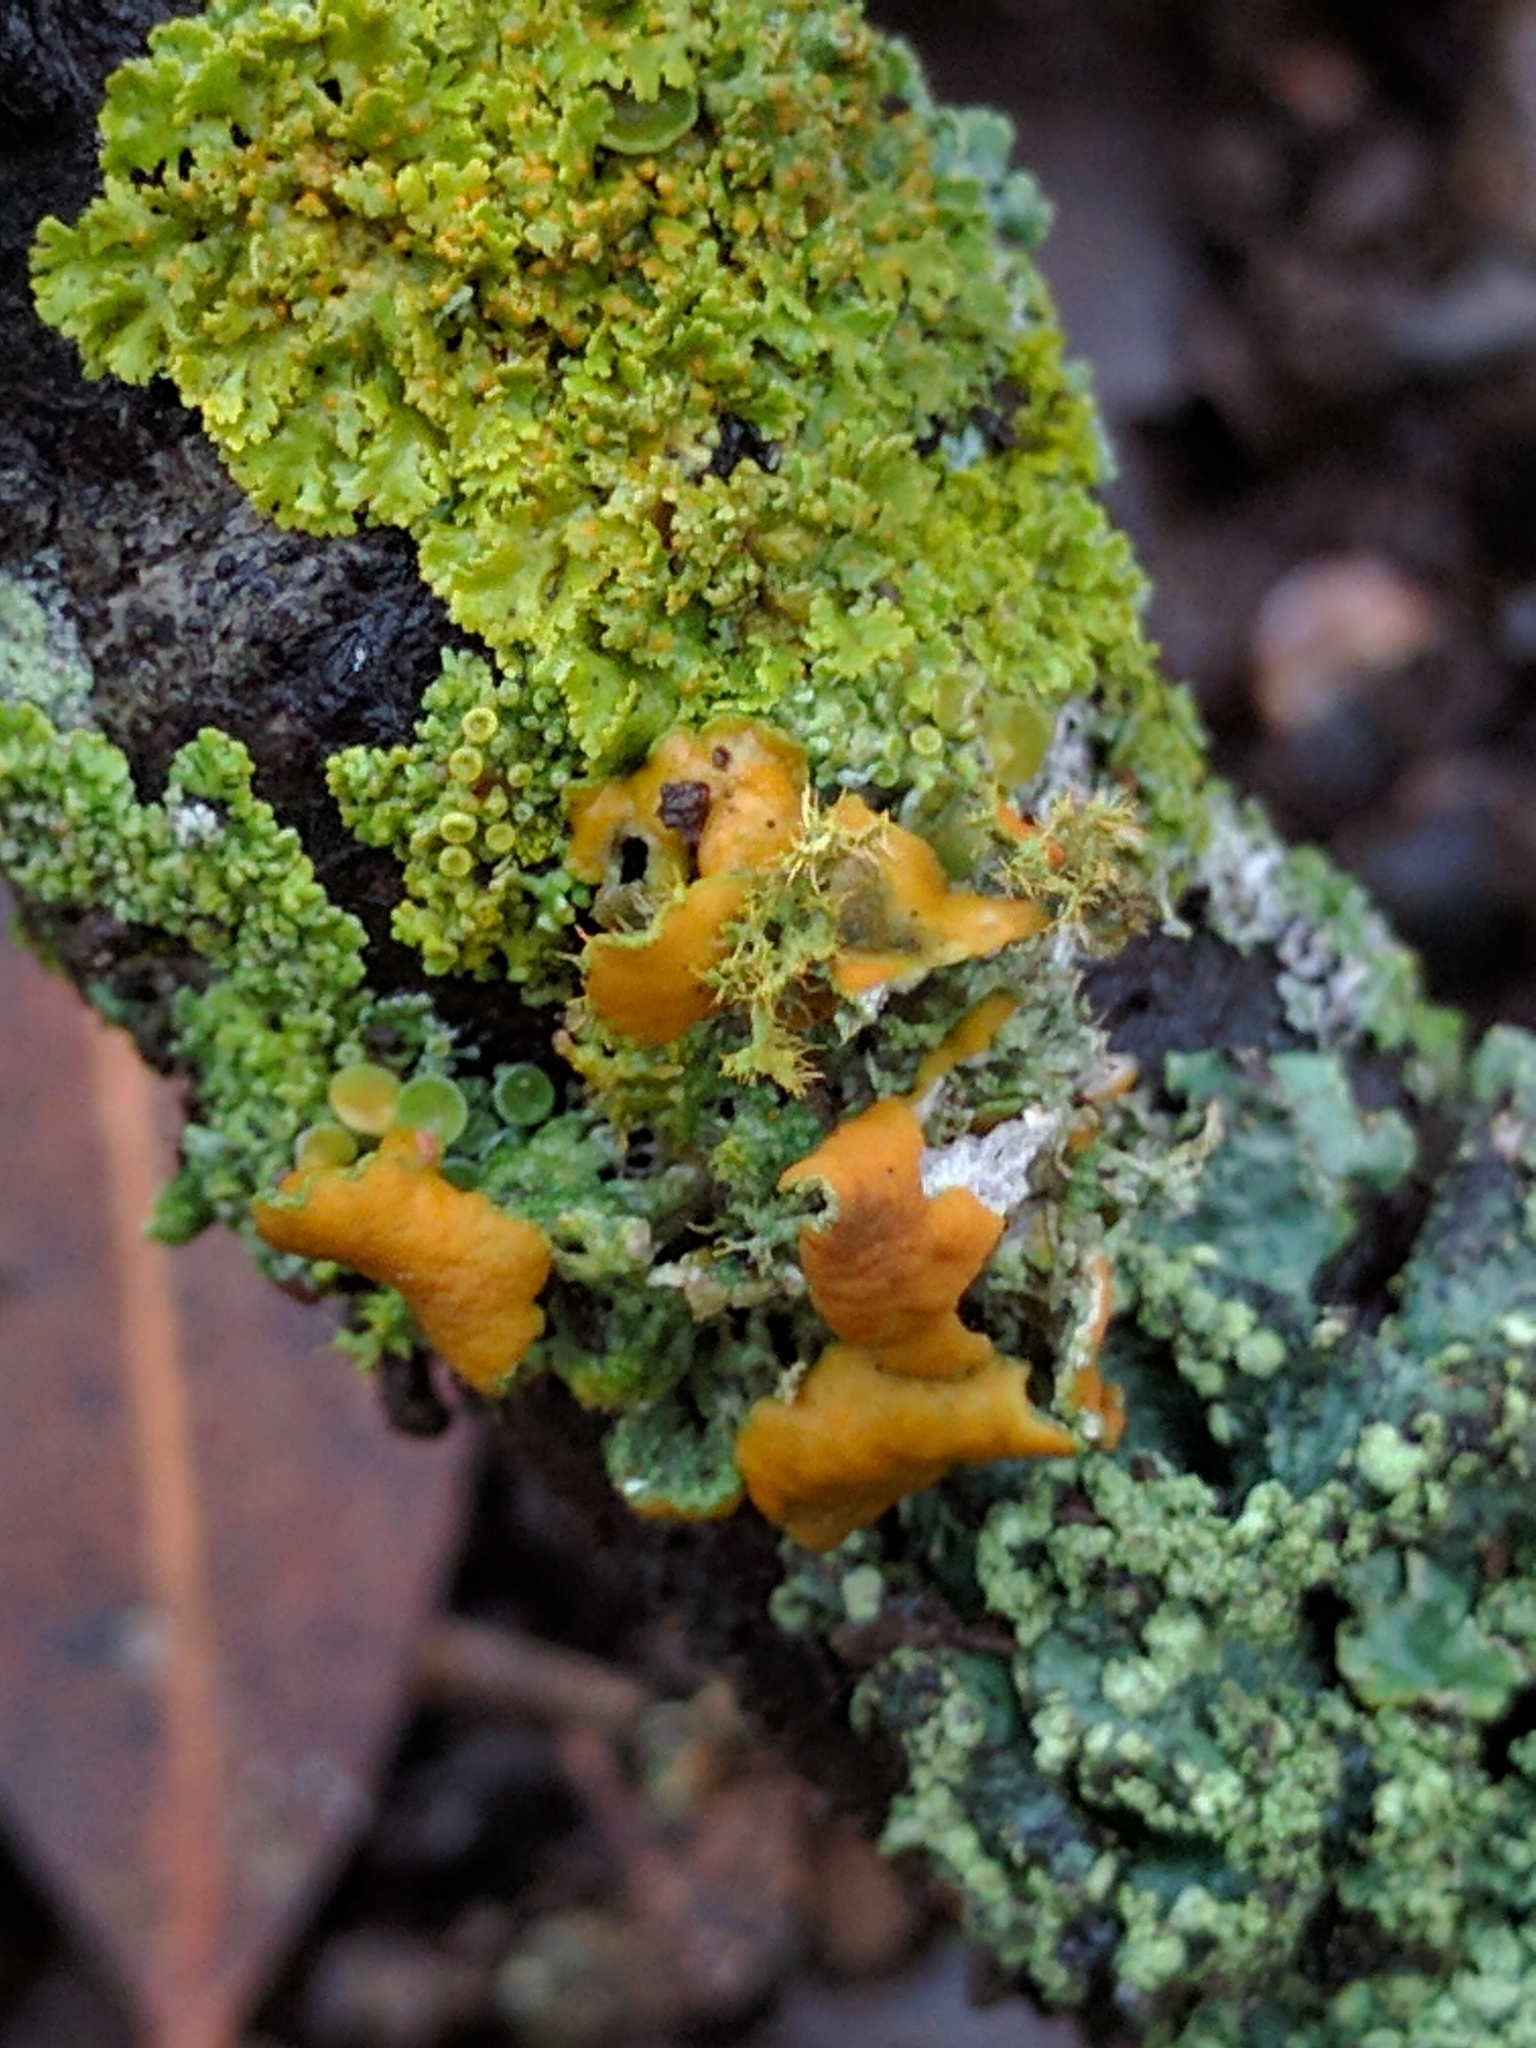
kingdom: Fungi
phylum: Ascomycota
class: Lecanoromycetes
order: Teloschistales
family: Teloschistaceae
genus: Niorma
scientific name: Niorma chrysophthalma
